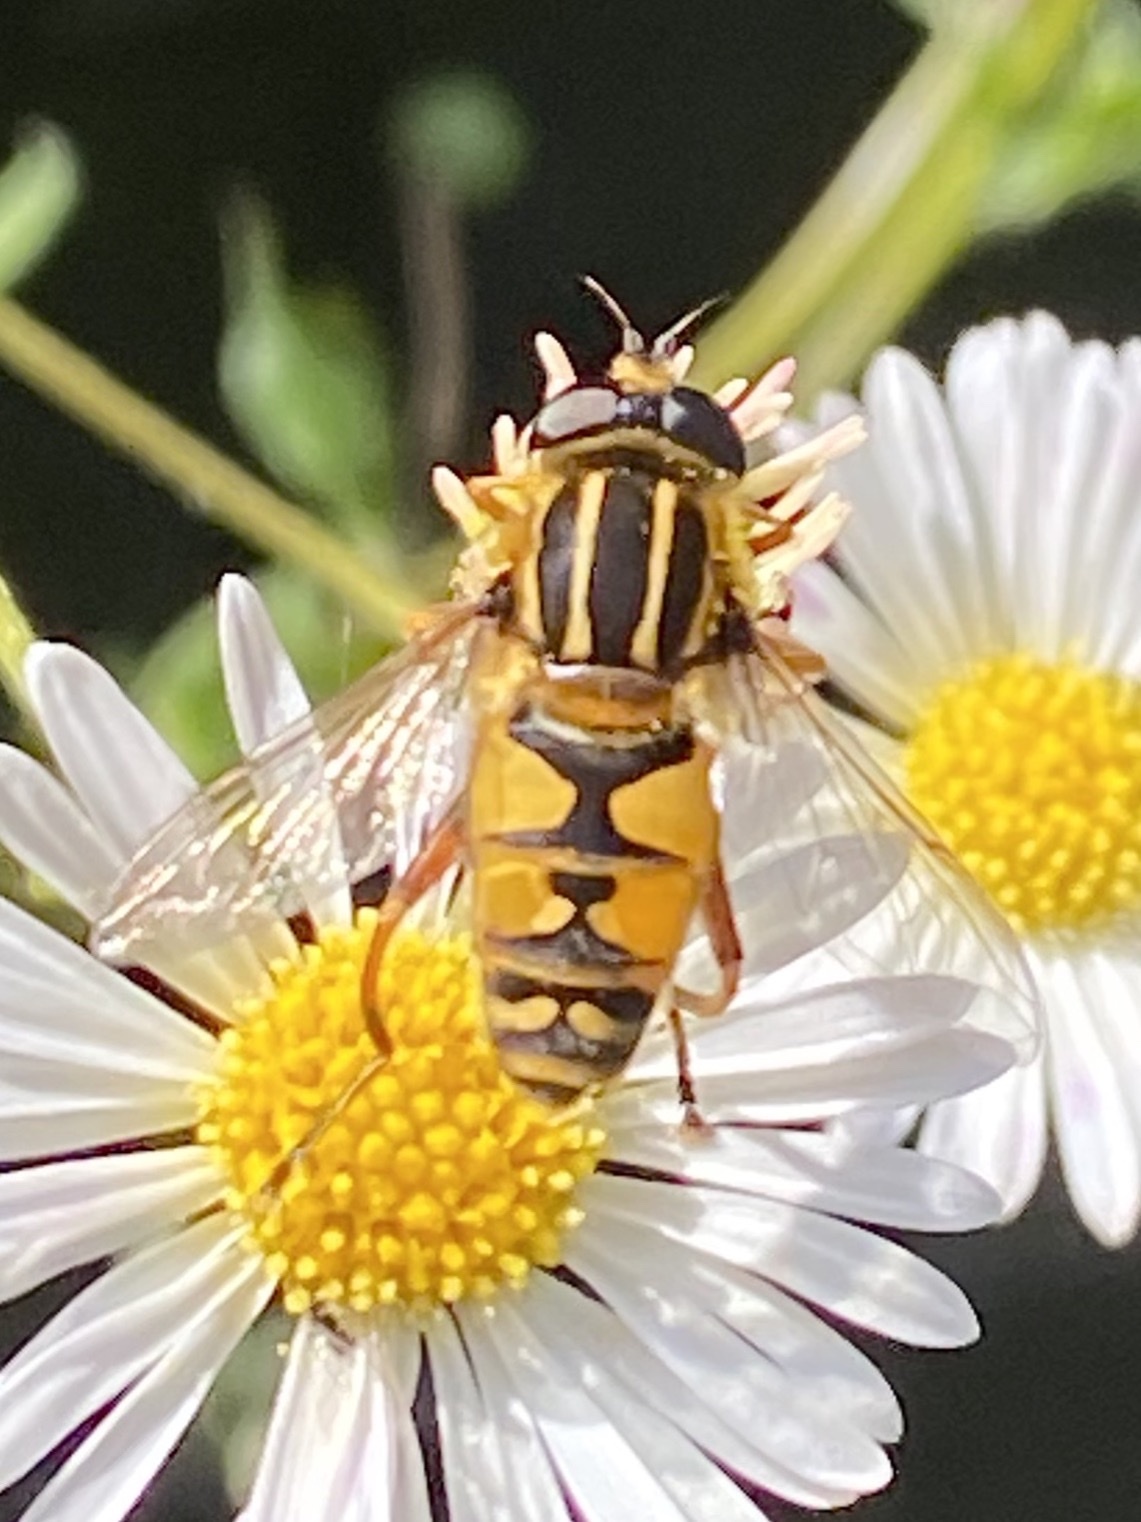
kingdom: Animalia
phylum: Arthropoda
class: Insecta
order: Diptera
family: Syrphidae
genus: Helophilus
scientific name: Helophilus pendulus
